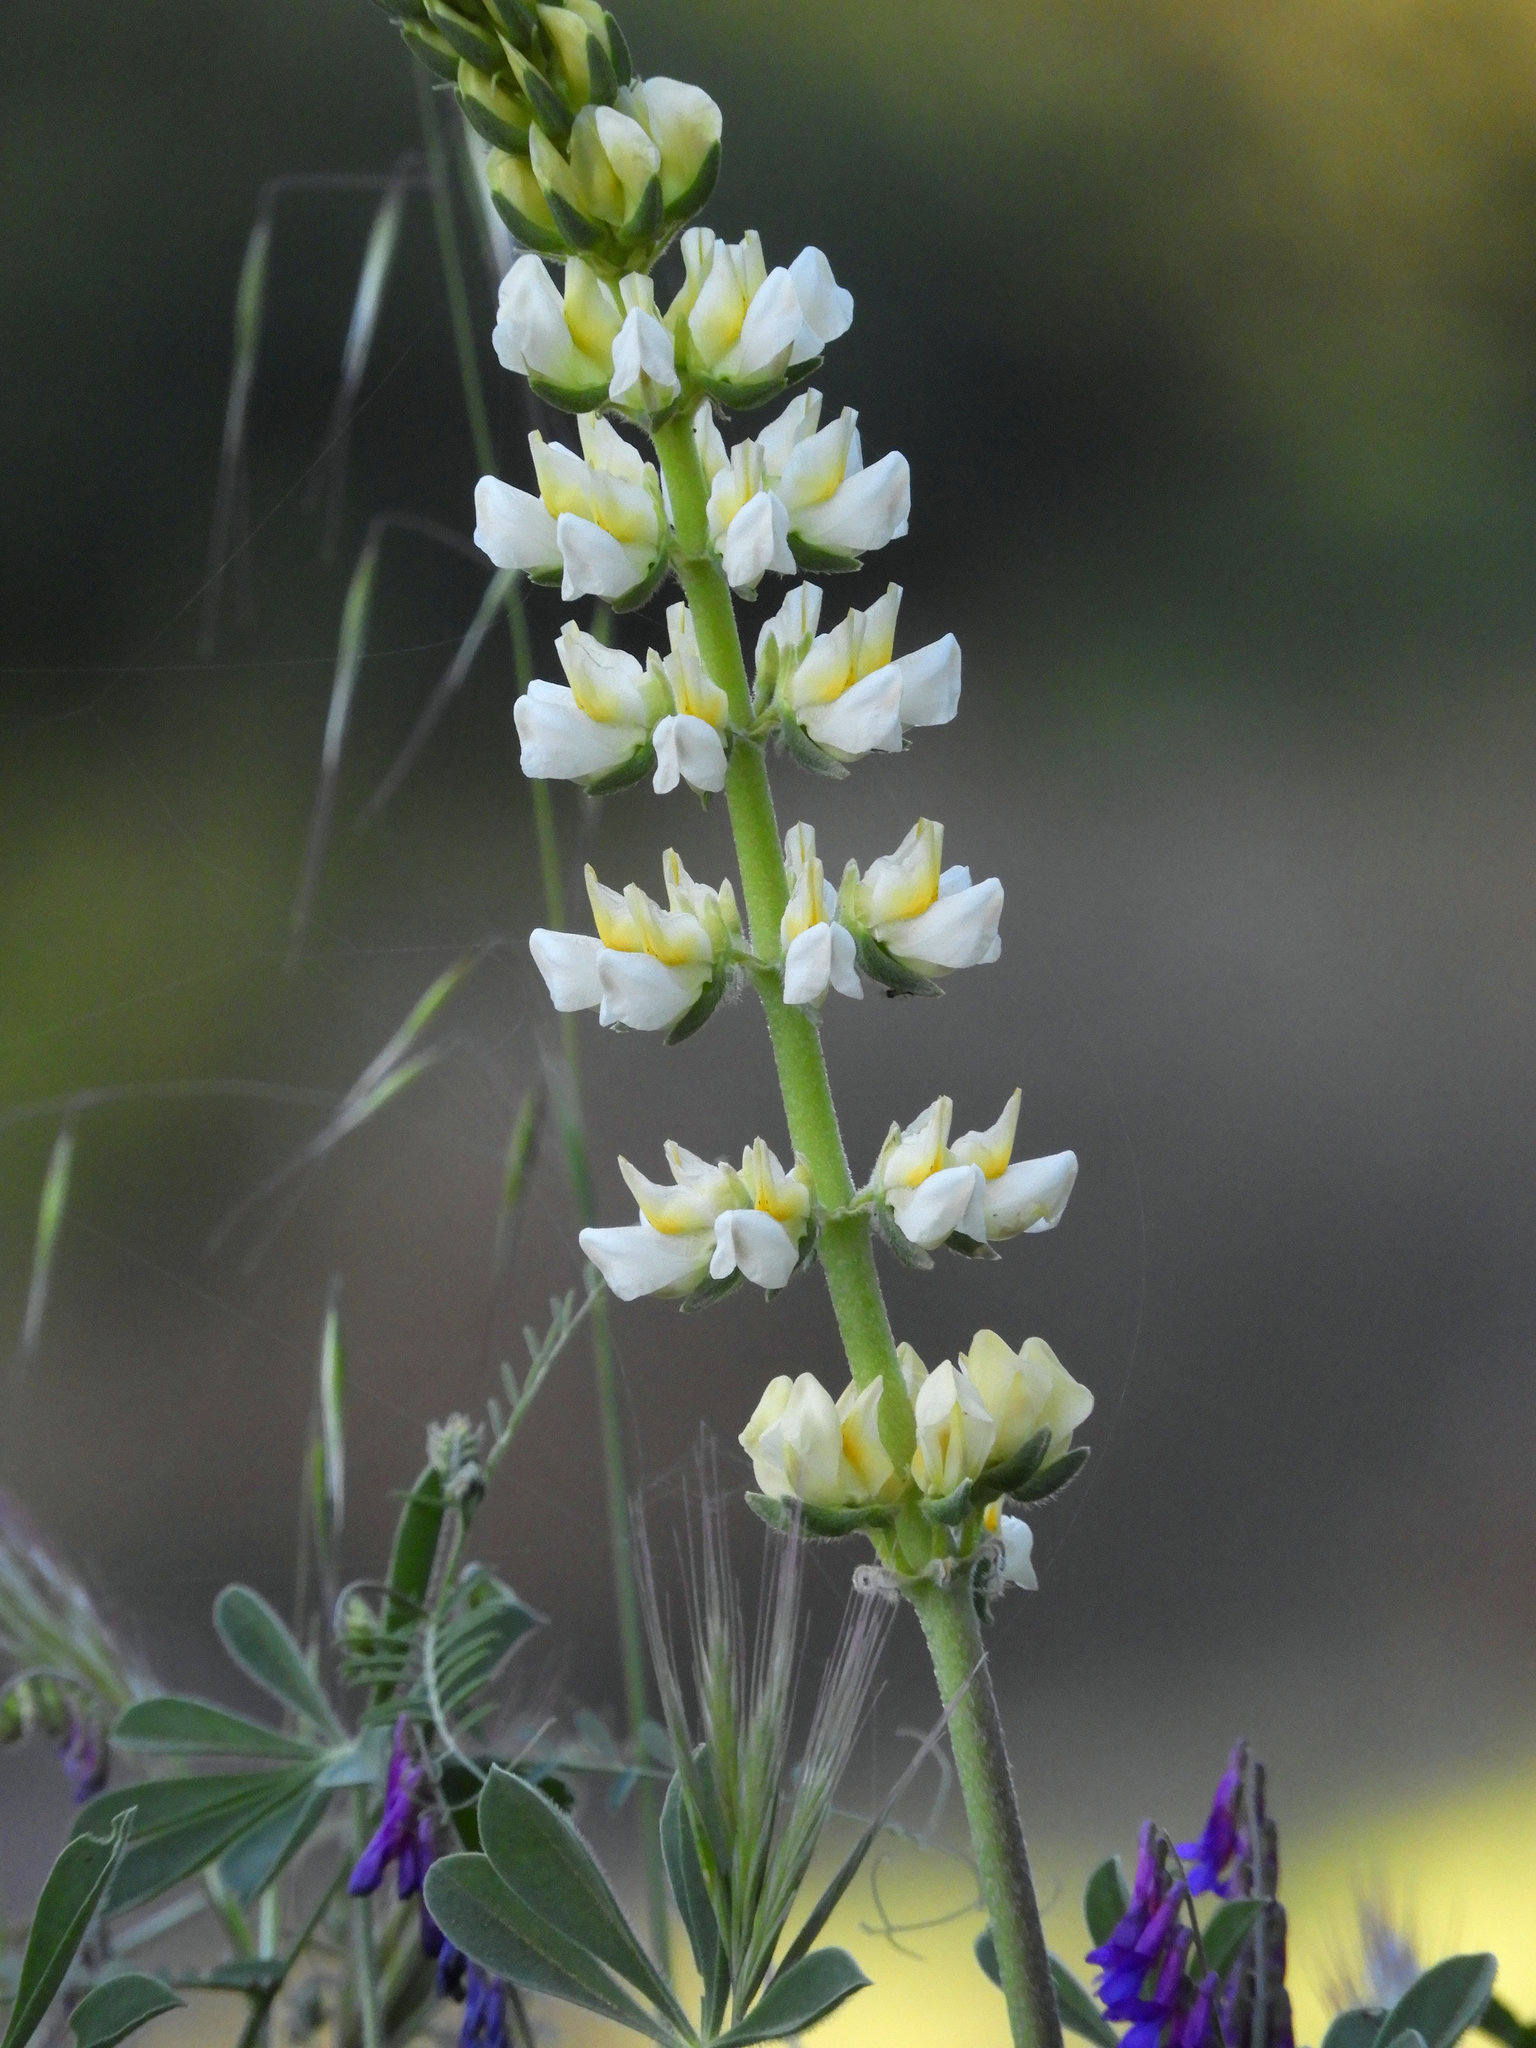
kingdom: Plantae
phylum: Tracheophyta
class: Magnoliopsida
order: Fabales
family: Fabaceae
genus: Lupinus
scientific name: Lupinus luteolus
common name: Butter lupine
